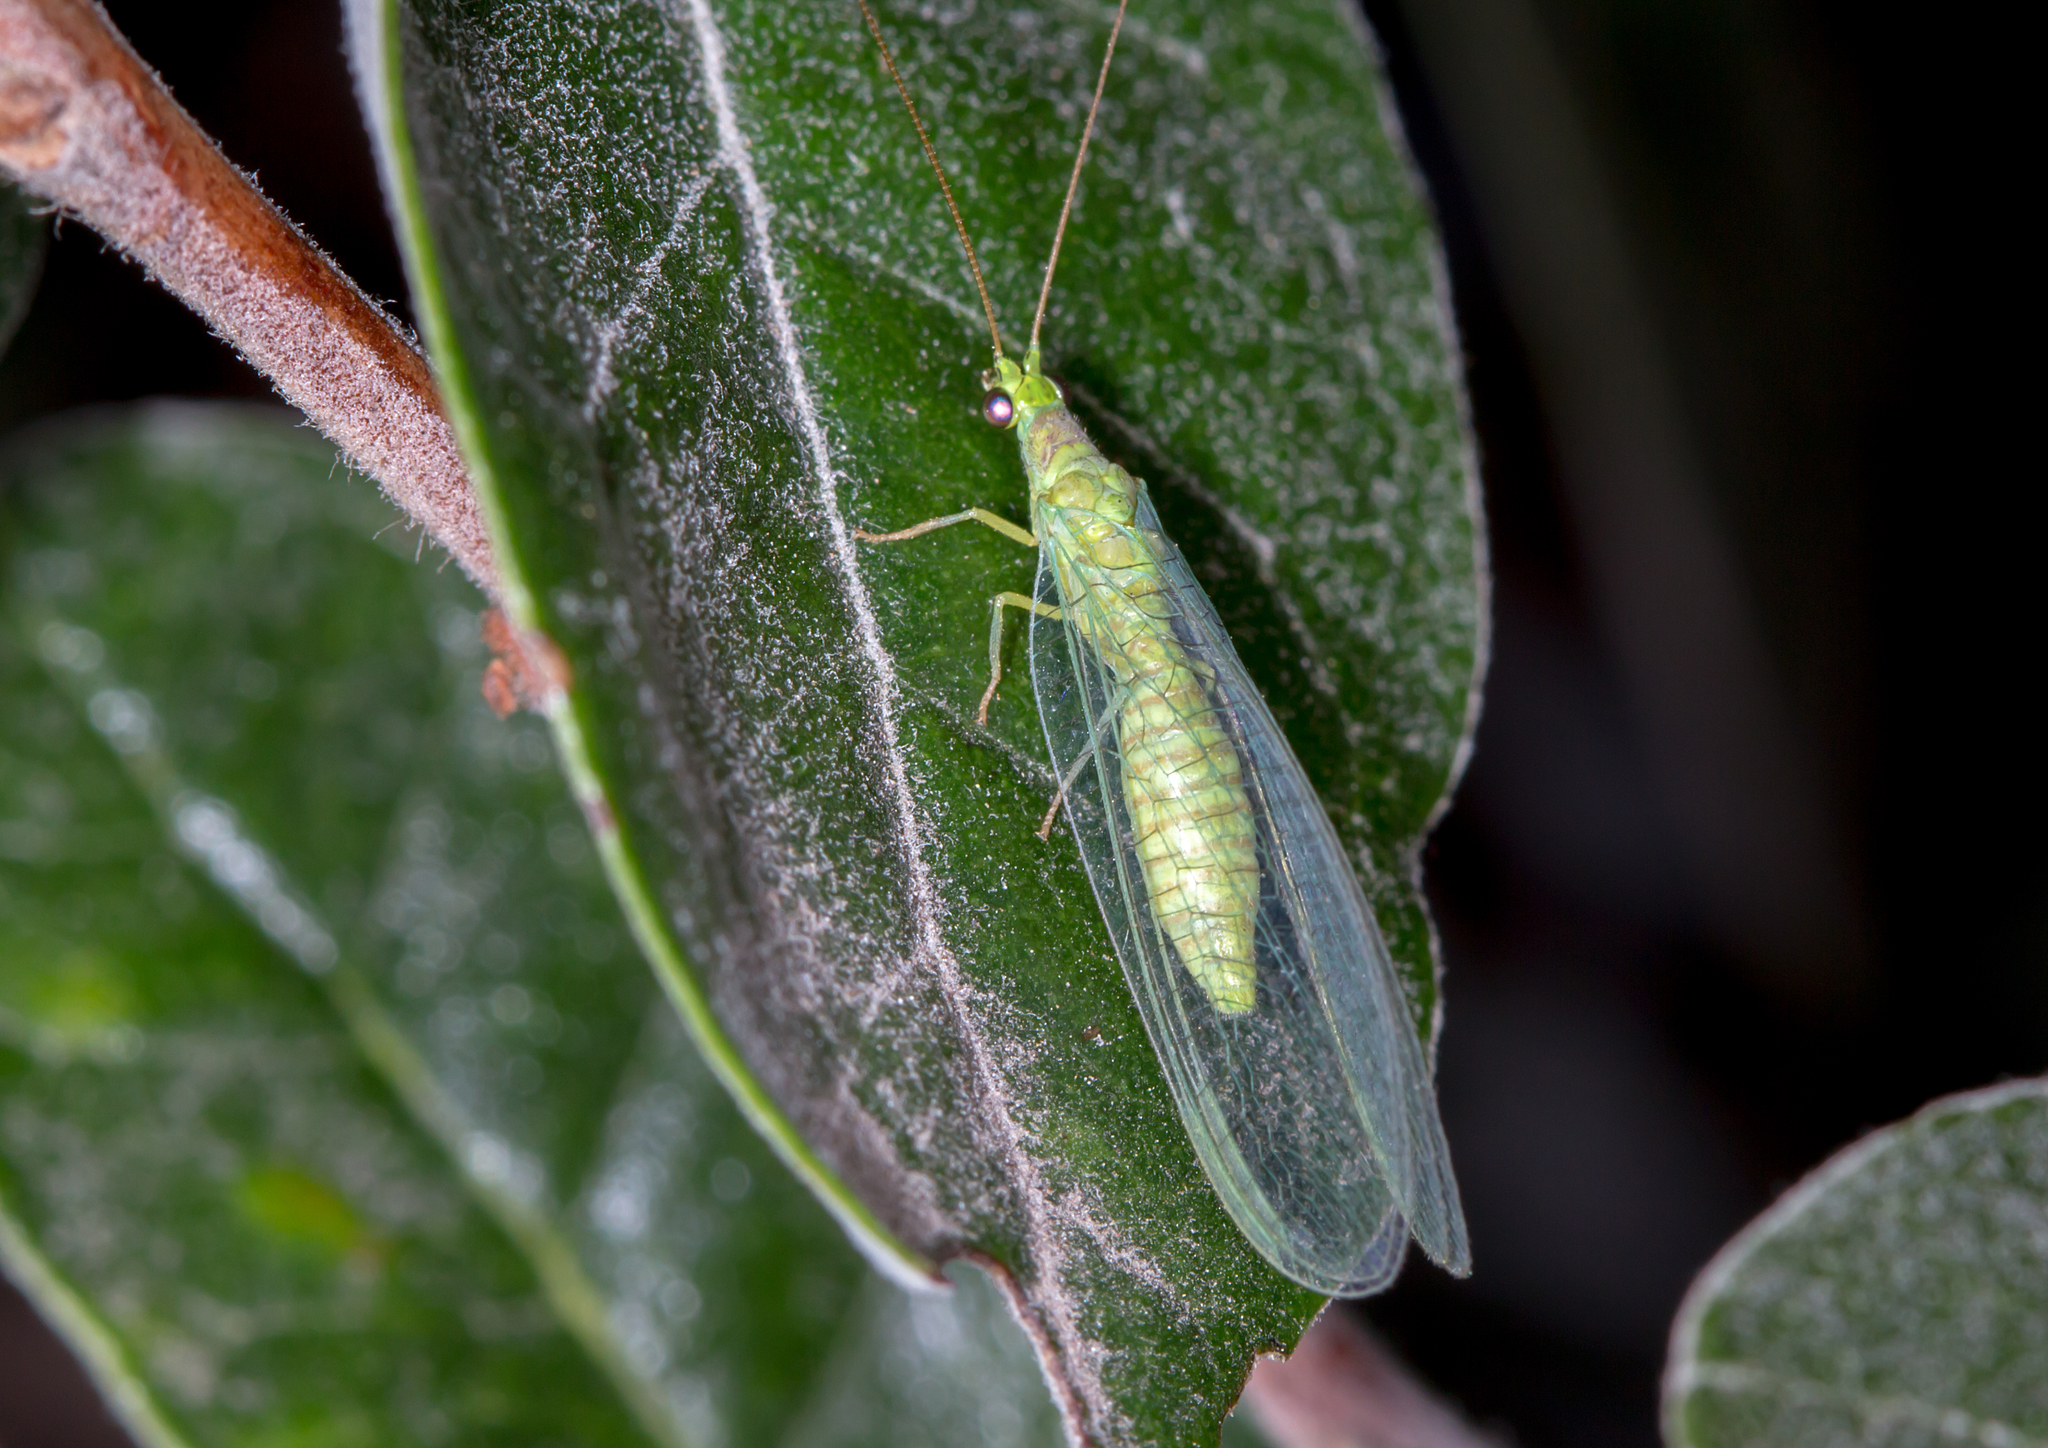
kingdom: Animalia
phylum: Arthropoda
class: Insecta
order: Neuroptera
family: Chrysopidae
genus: Mallada
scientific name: Mallada signatus
